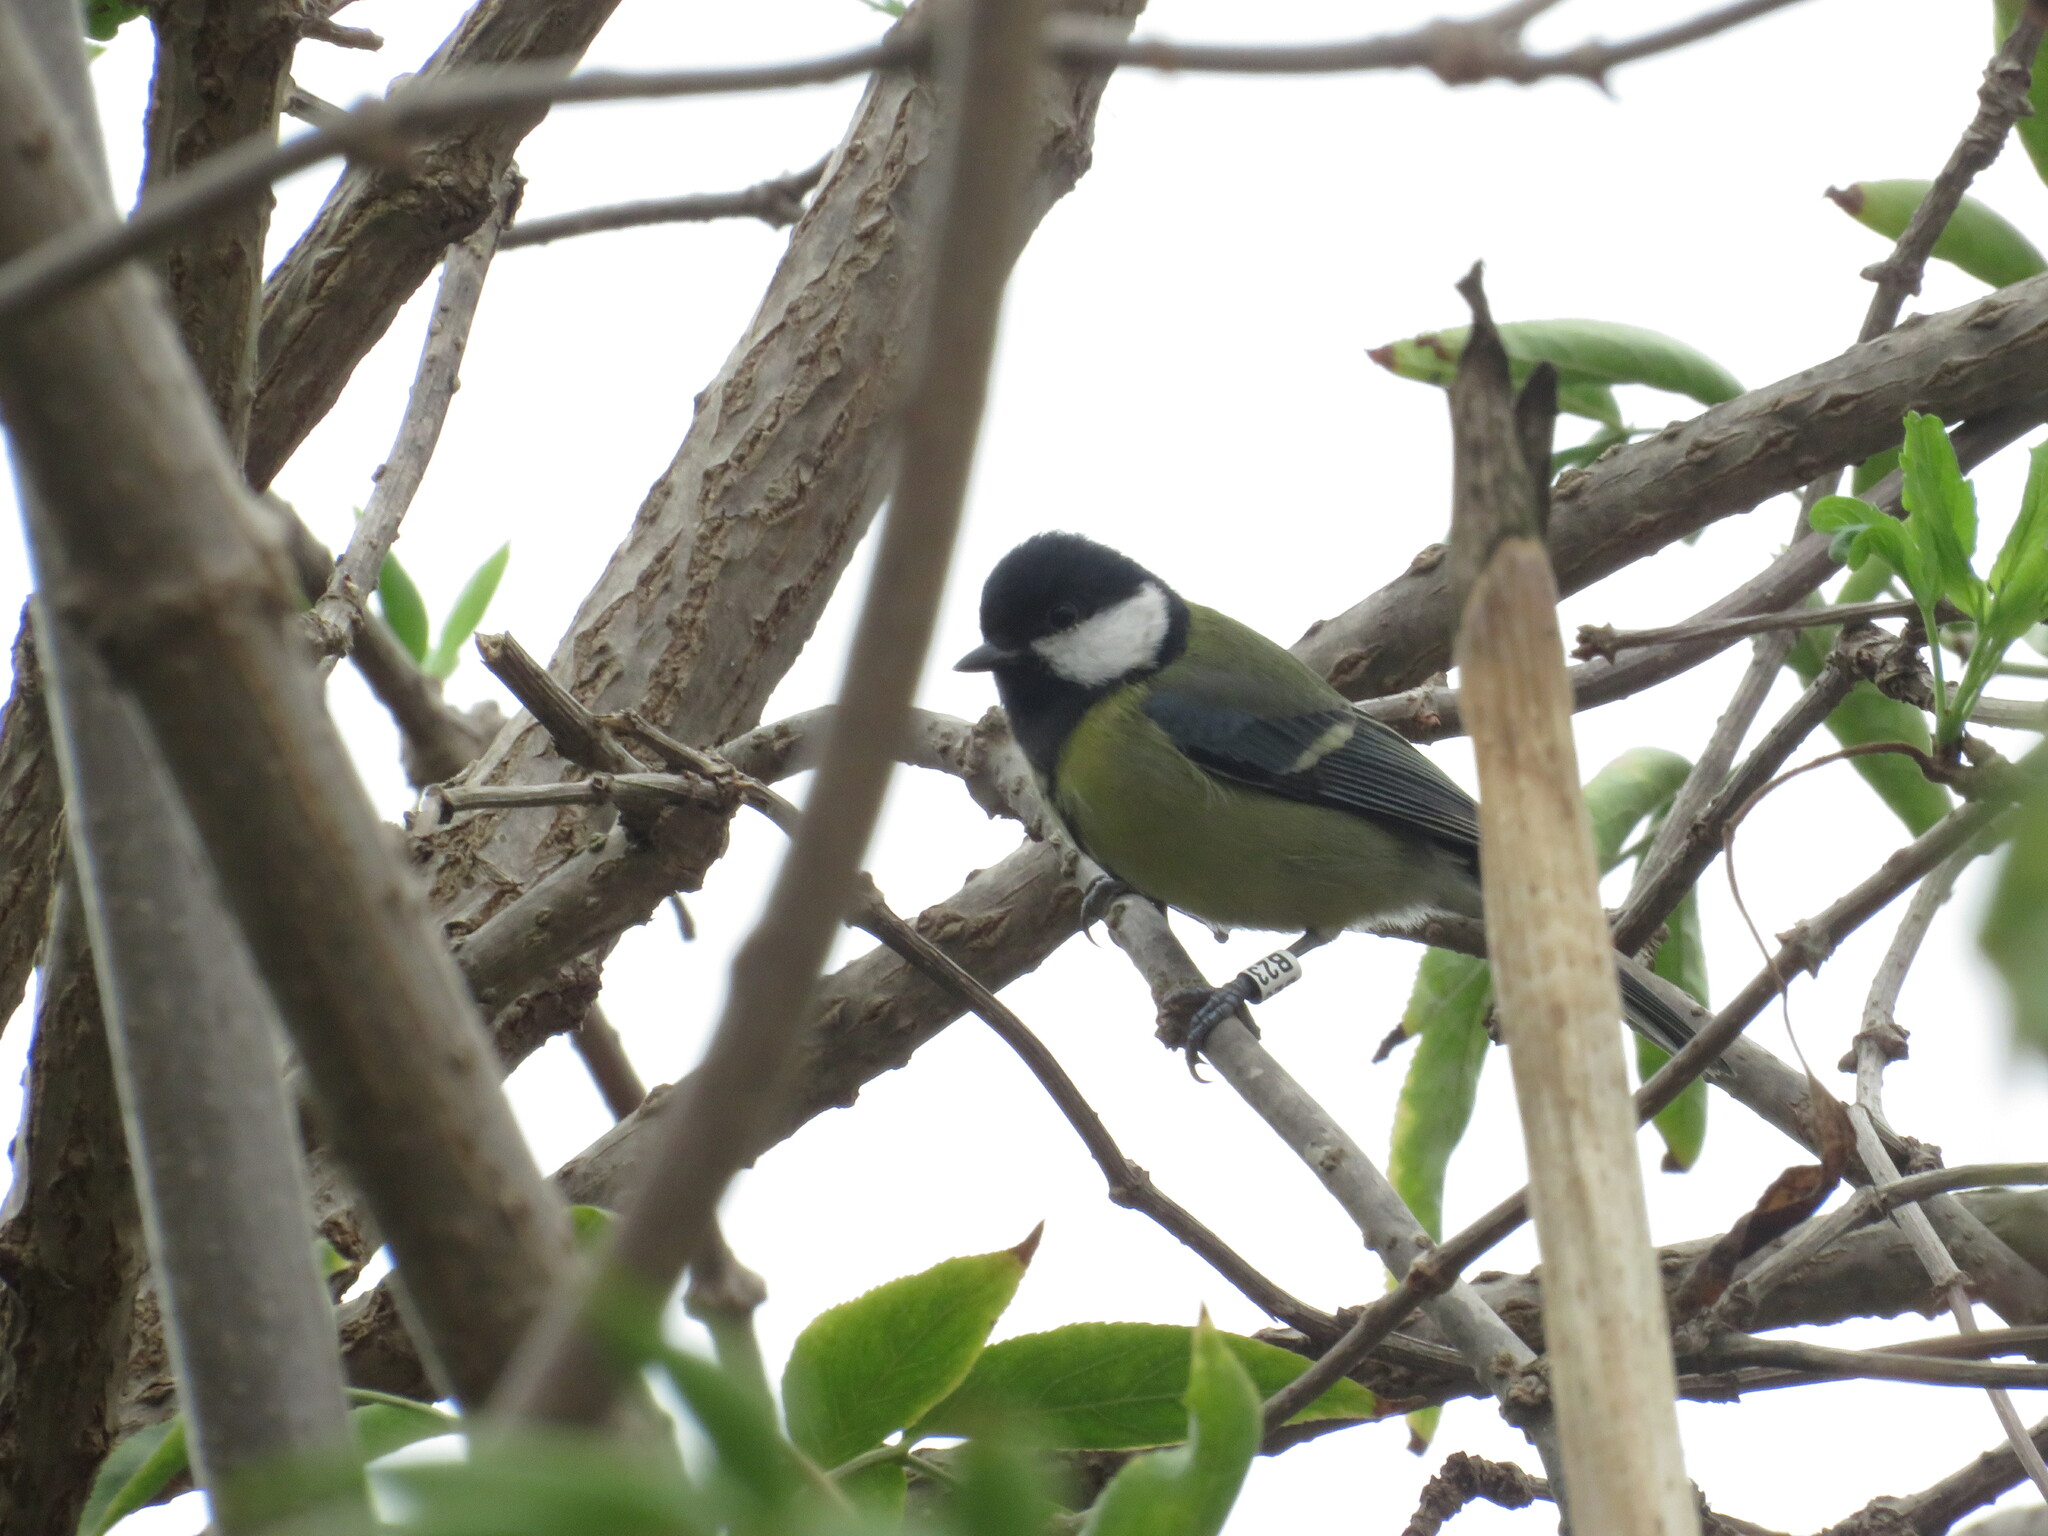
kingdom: Animalia
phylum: Chordata
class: Aves
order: Passeriformes
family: Paridae
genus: Parus
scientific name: Parus major
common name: Great tit
